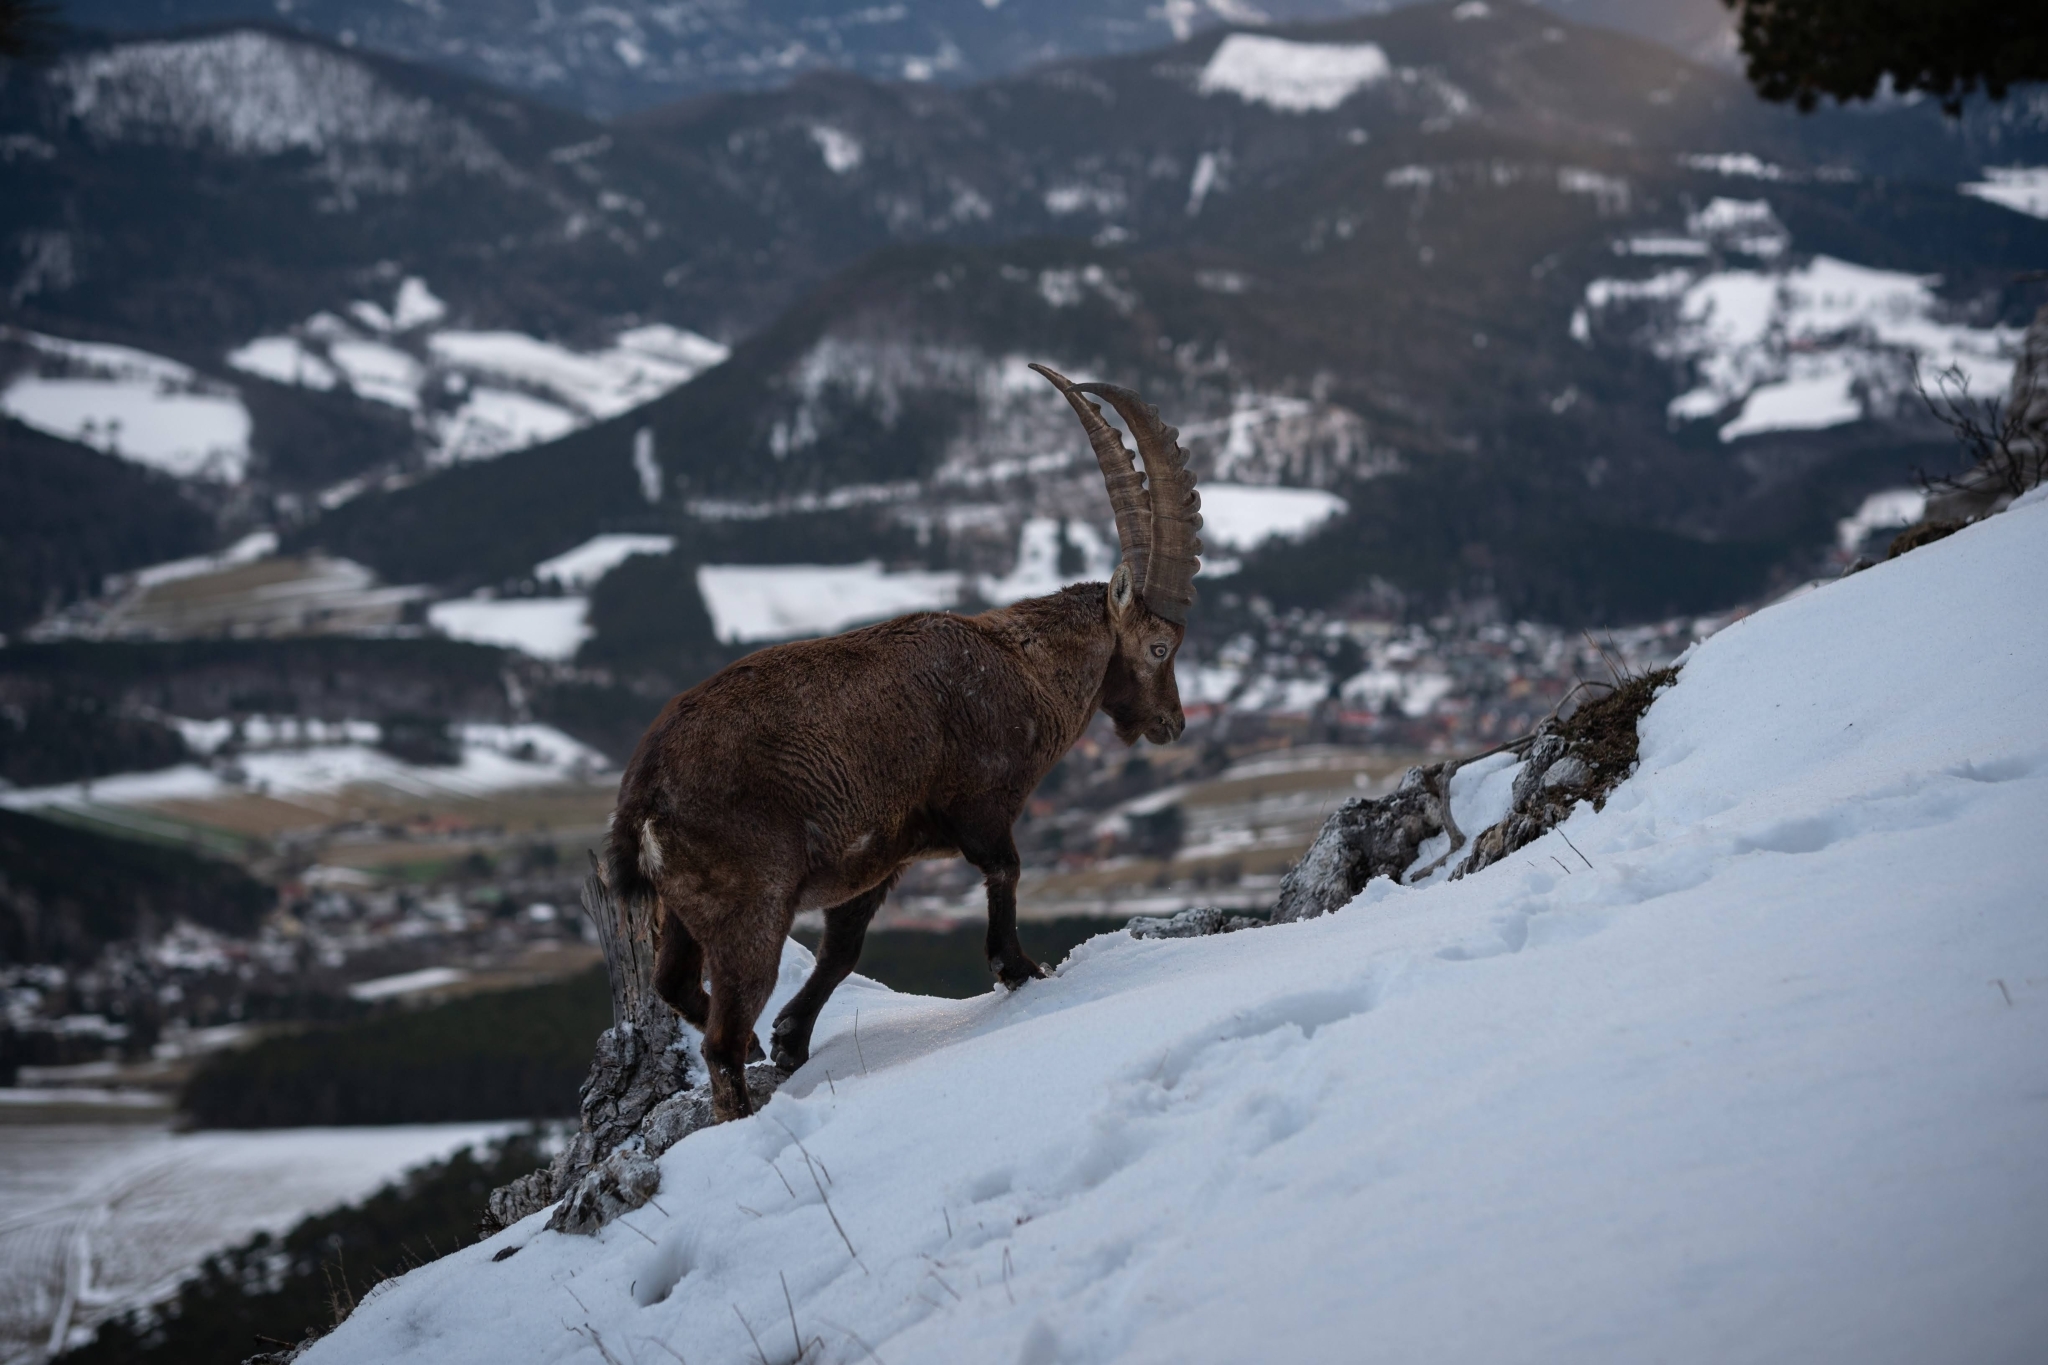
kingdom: Animalia
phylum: Chordata
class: Mammalia
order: Artiodactyla
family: Bovidae
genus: Capra
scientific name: Capra ibex
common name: Alpine ibex
